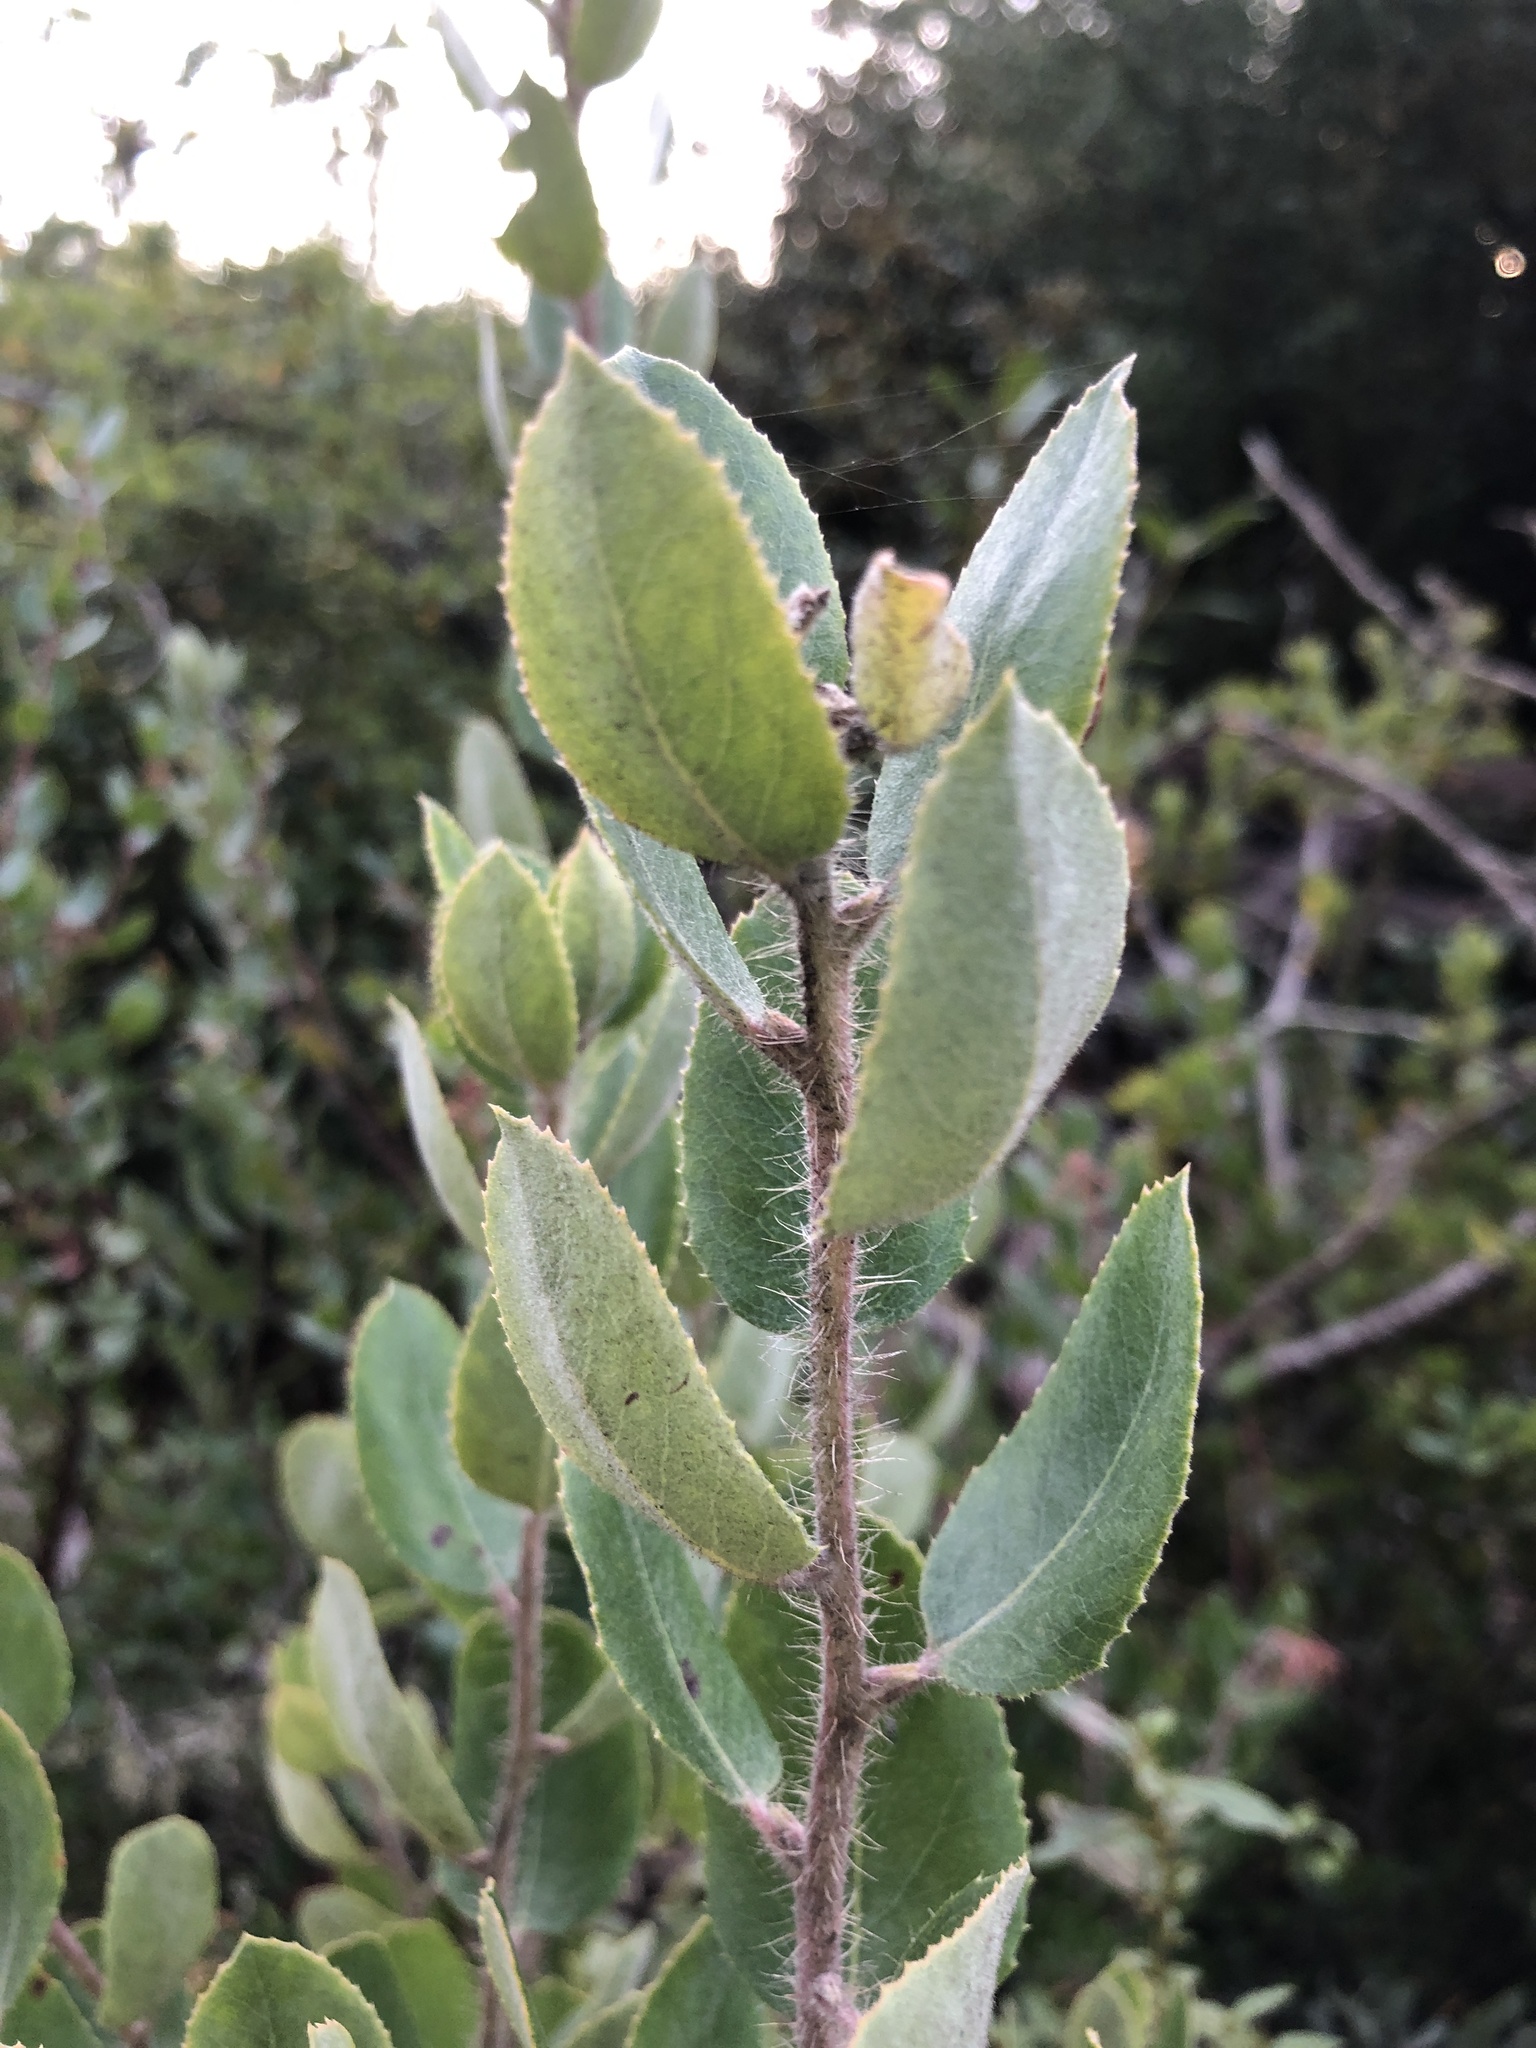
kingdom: Plantae
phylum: Tracheophyta
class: Magnoliopsida
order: Ericales
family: Ericaceae
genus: Arctostaphylos
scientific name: Arctostaphylos crustacea
